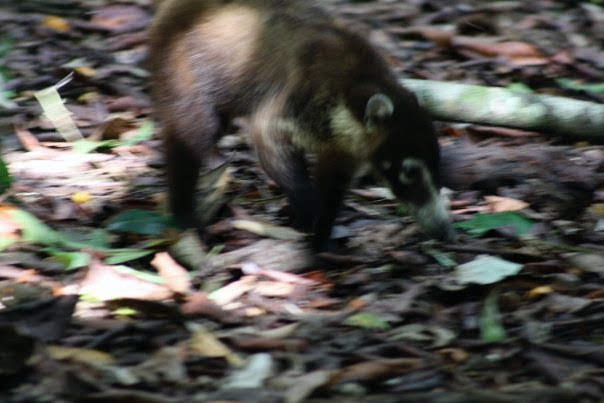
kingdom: Animalia
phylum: Chordata
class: Mammalia
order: Carnivora
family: Procyonidae
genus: Nasua
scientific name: Nasua narica
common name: White-nosed coati
